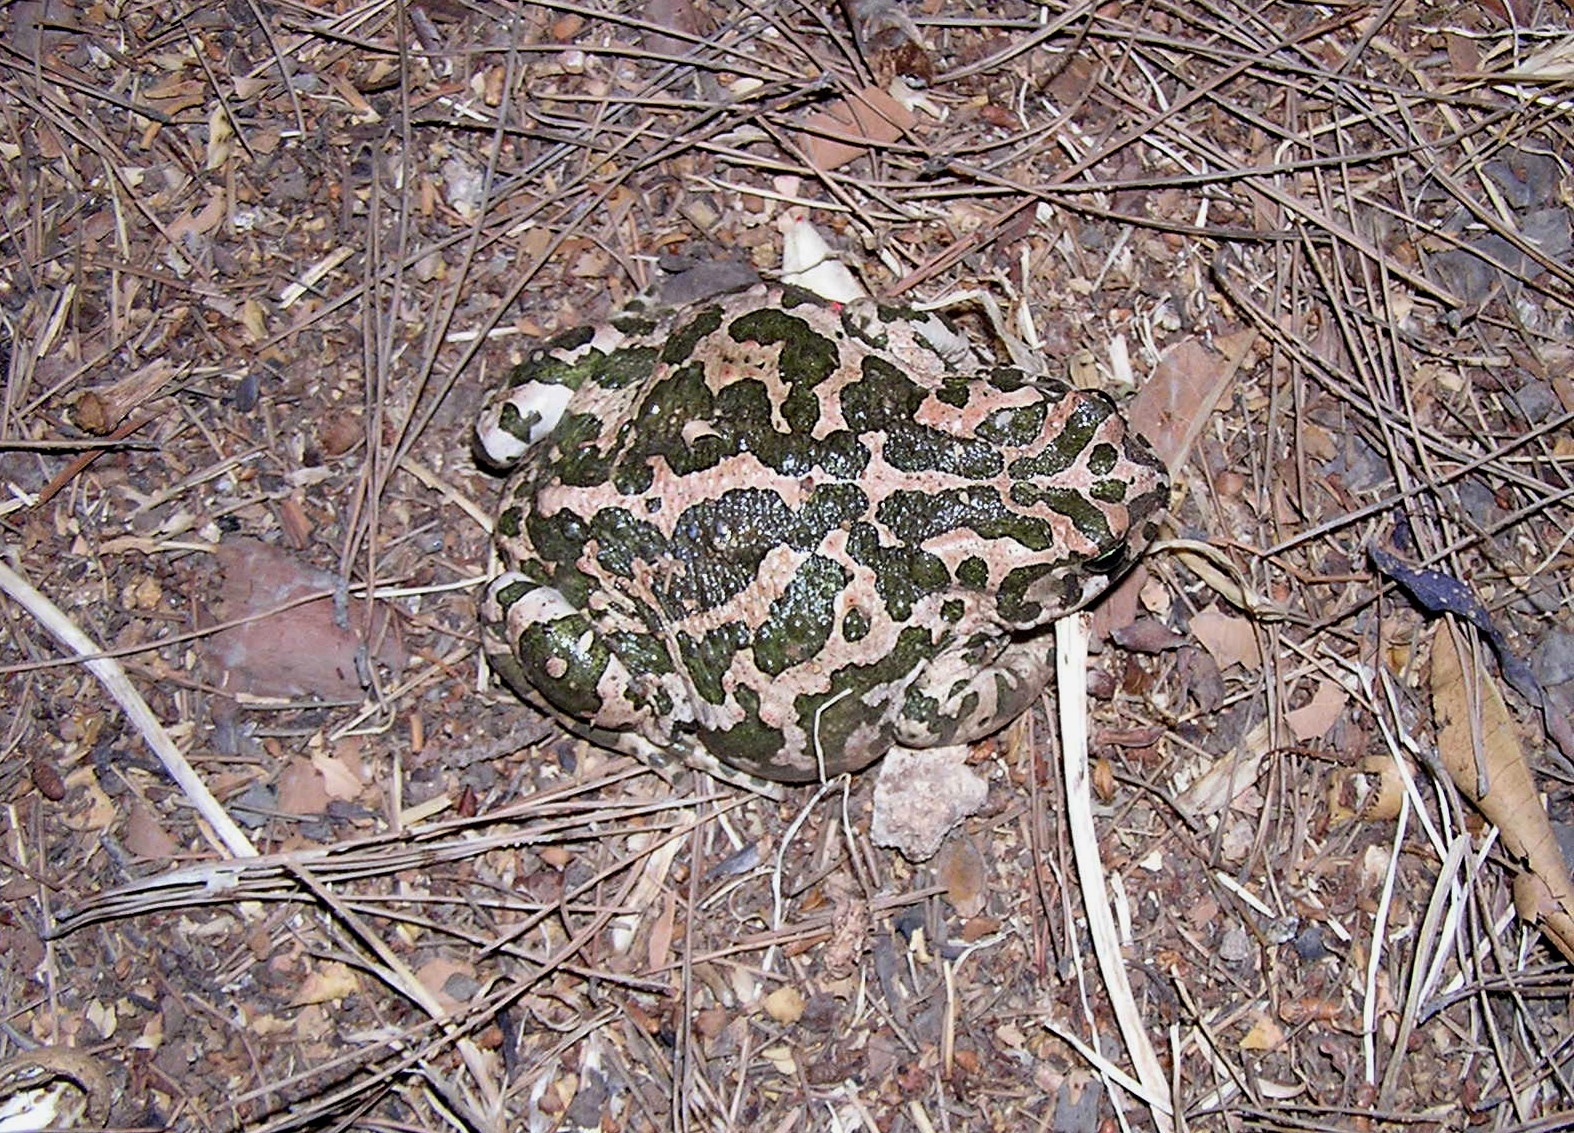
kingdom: Animalia
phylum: Chordata
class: Amphibia
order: Anura
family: Bufonidae
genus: Bufotes
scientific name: Bufotes viridis
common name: European green toad
